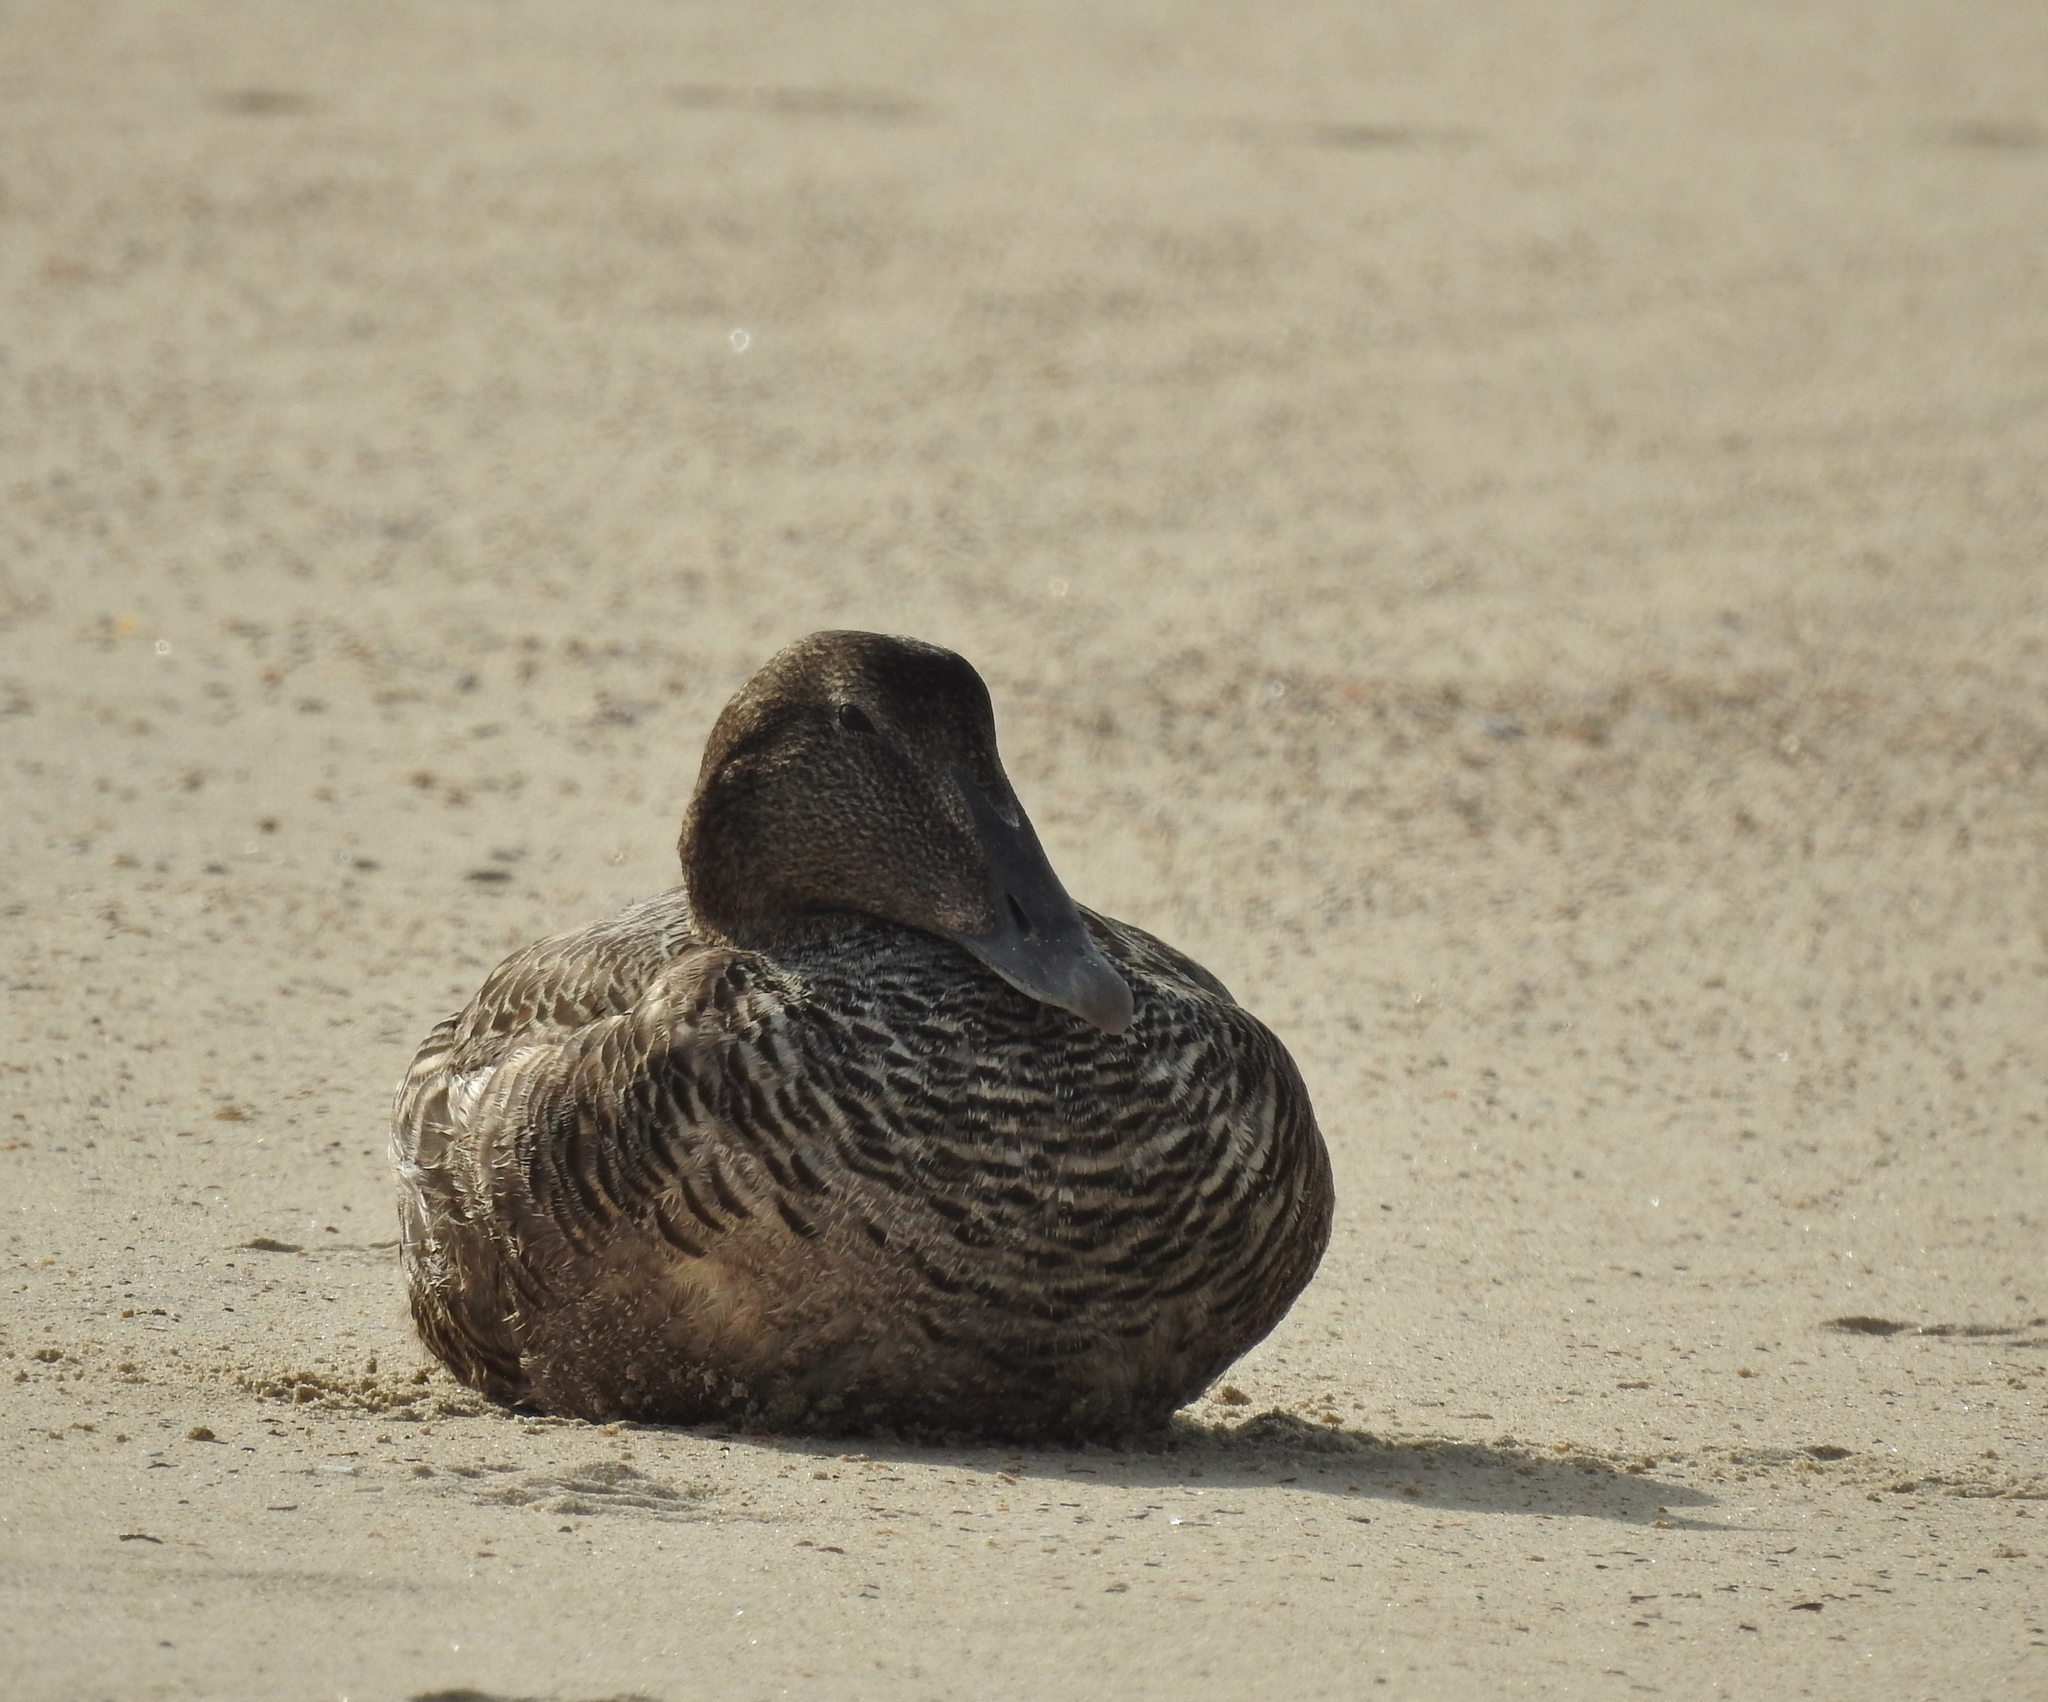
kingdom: Animalia
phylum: Chordata
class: Aves
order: Anseriformes
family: Anatidae
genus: Somateria
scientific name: Somateria mollissima
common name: Common eider
